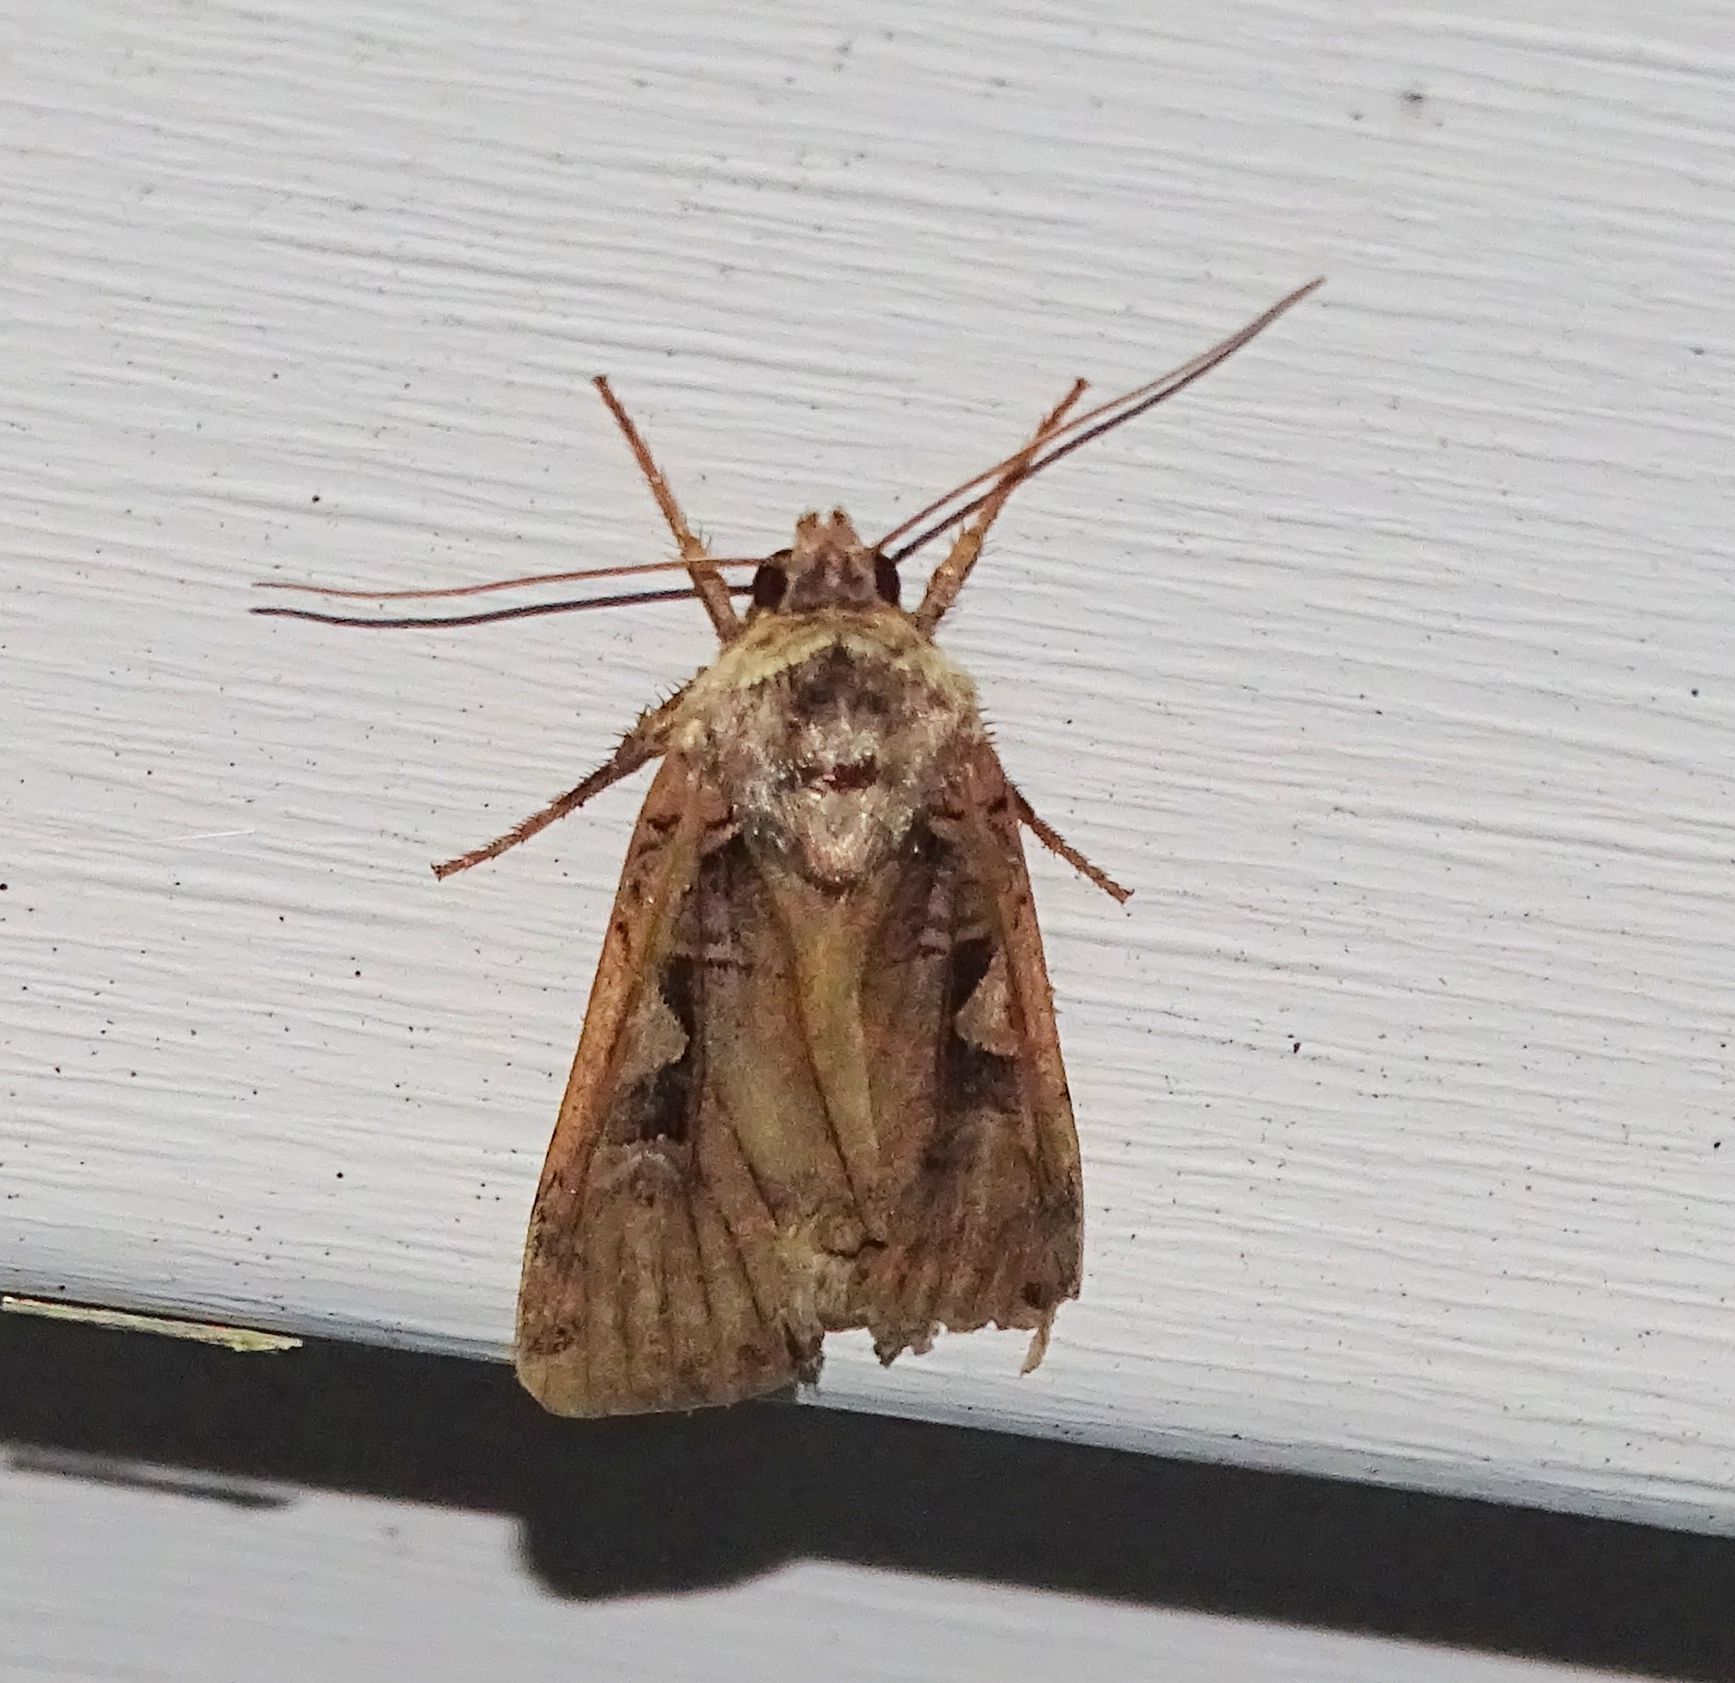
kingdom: Animalia
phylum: Arthropoda
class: Insecta
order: Lepidoptera
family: Noctuidae
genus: Xestia
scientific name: Xestia dolosa
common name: Cutworm moth
